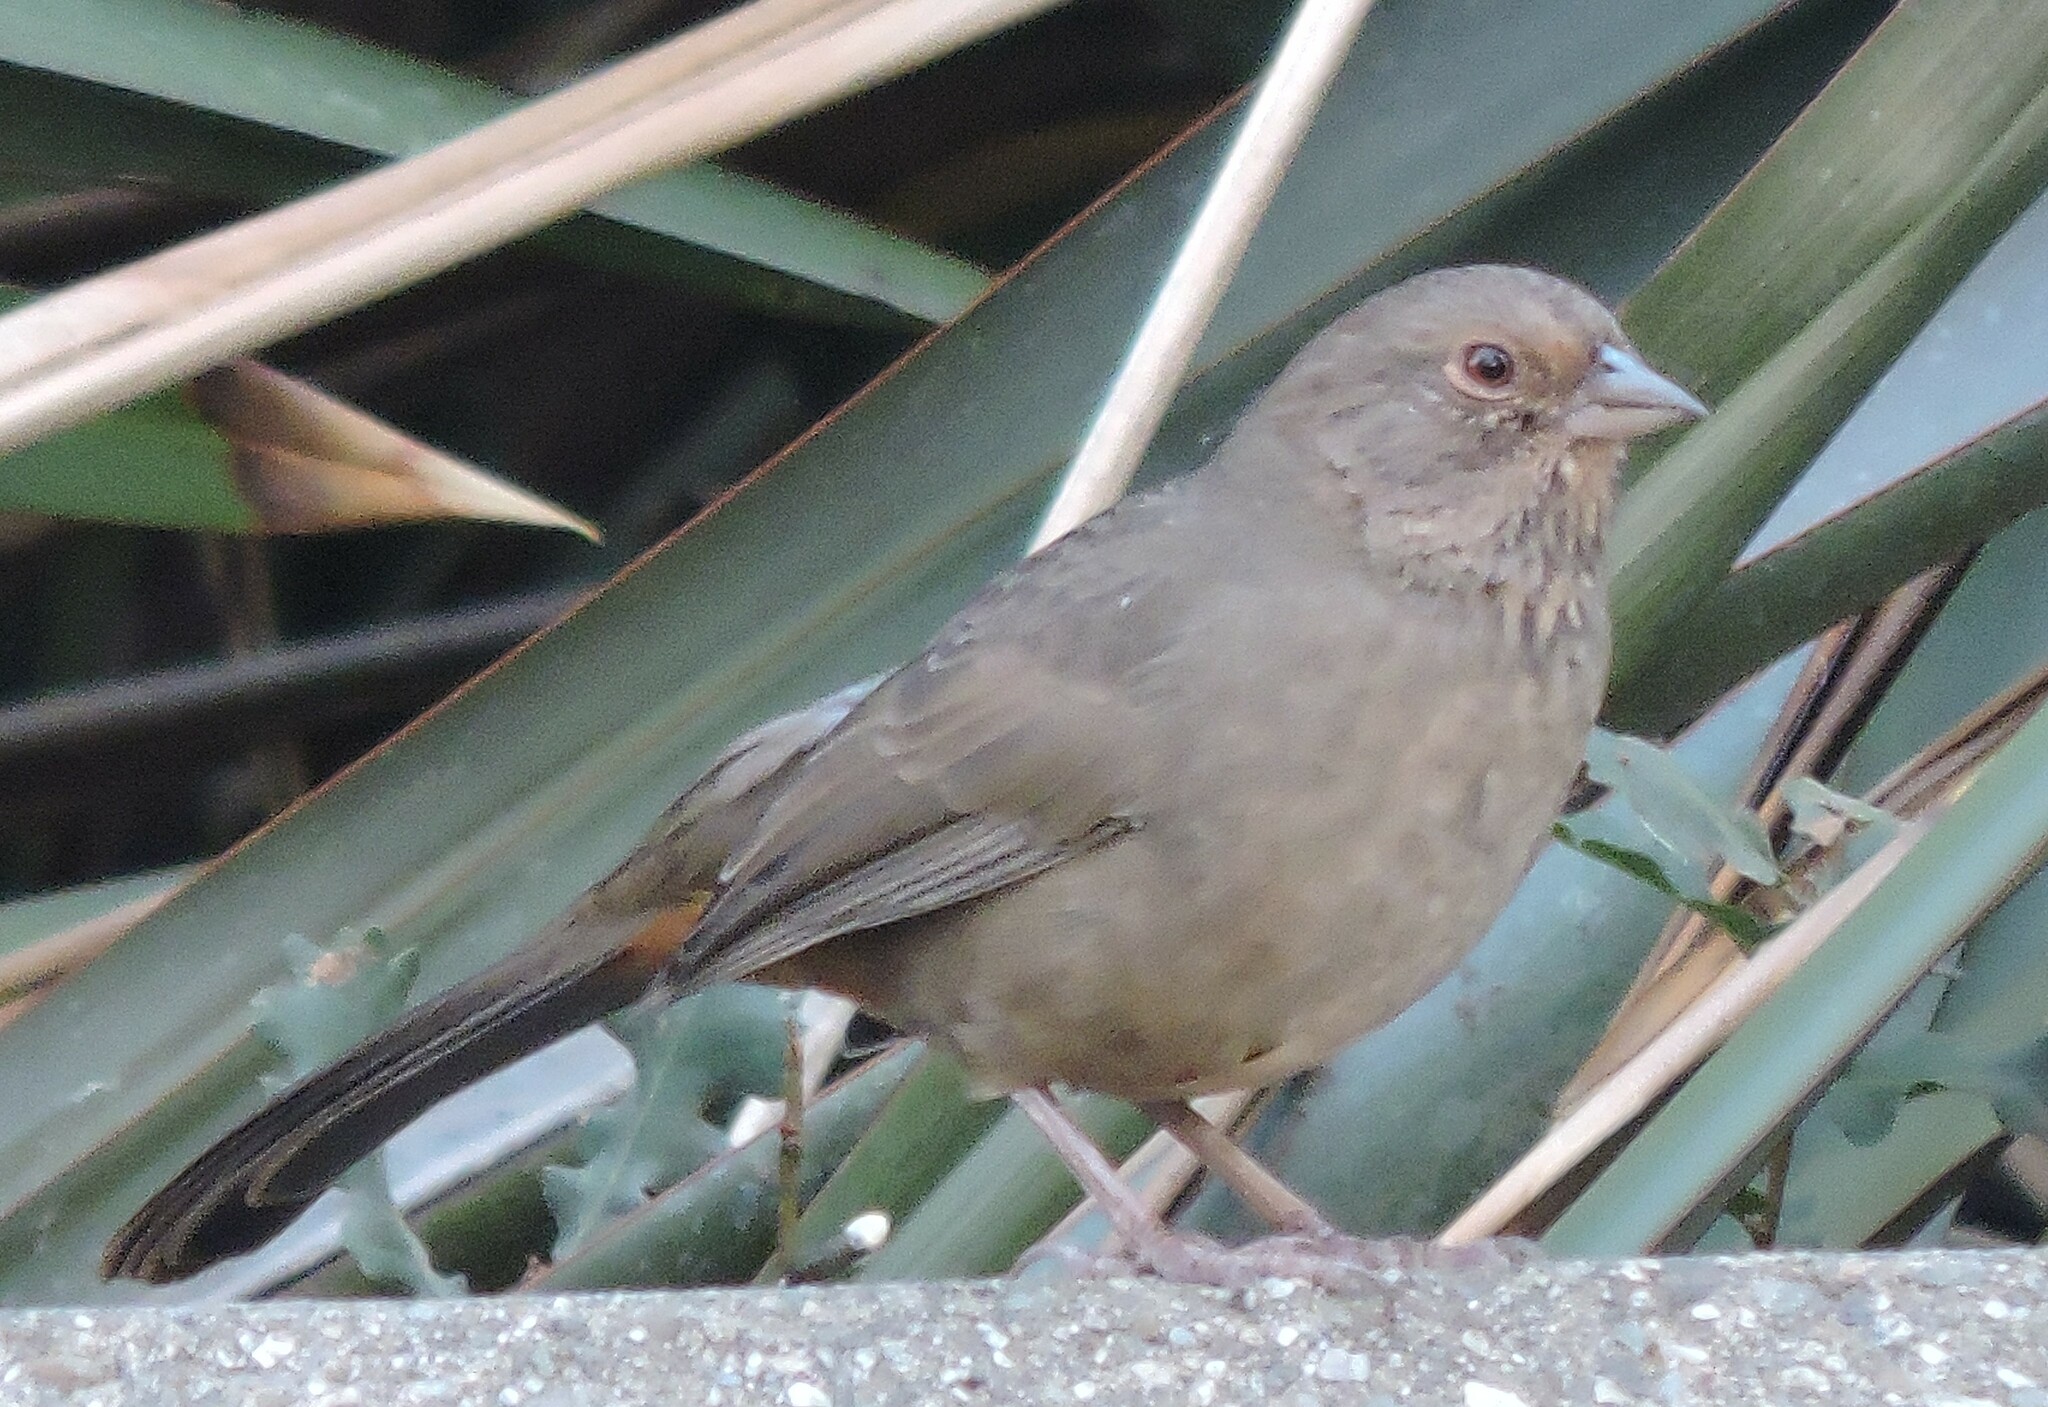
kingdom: Animalia
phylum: Chordata
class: Aves
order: Passeriformes
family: Passerellidae
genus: Melozone
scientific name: Melozone crissalis
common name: California towhee
